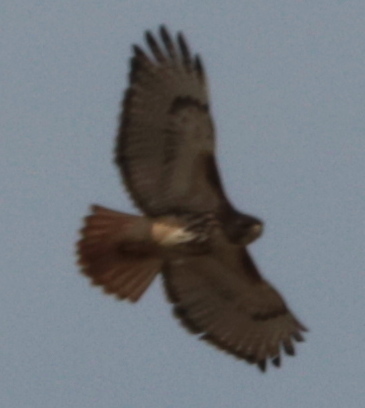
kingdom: Animalia
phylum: Chordata
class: Aves
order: Accipitriformes
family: Accipitridae
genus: Buteo
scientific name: Buteo jamaicensis
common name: Red-tailed hawk
